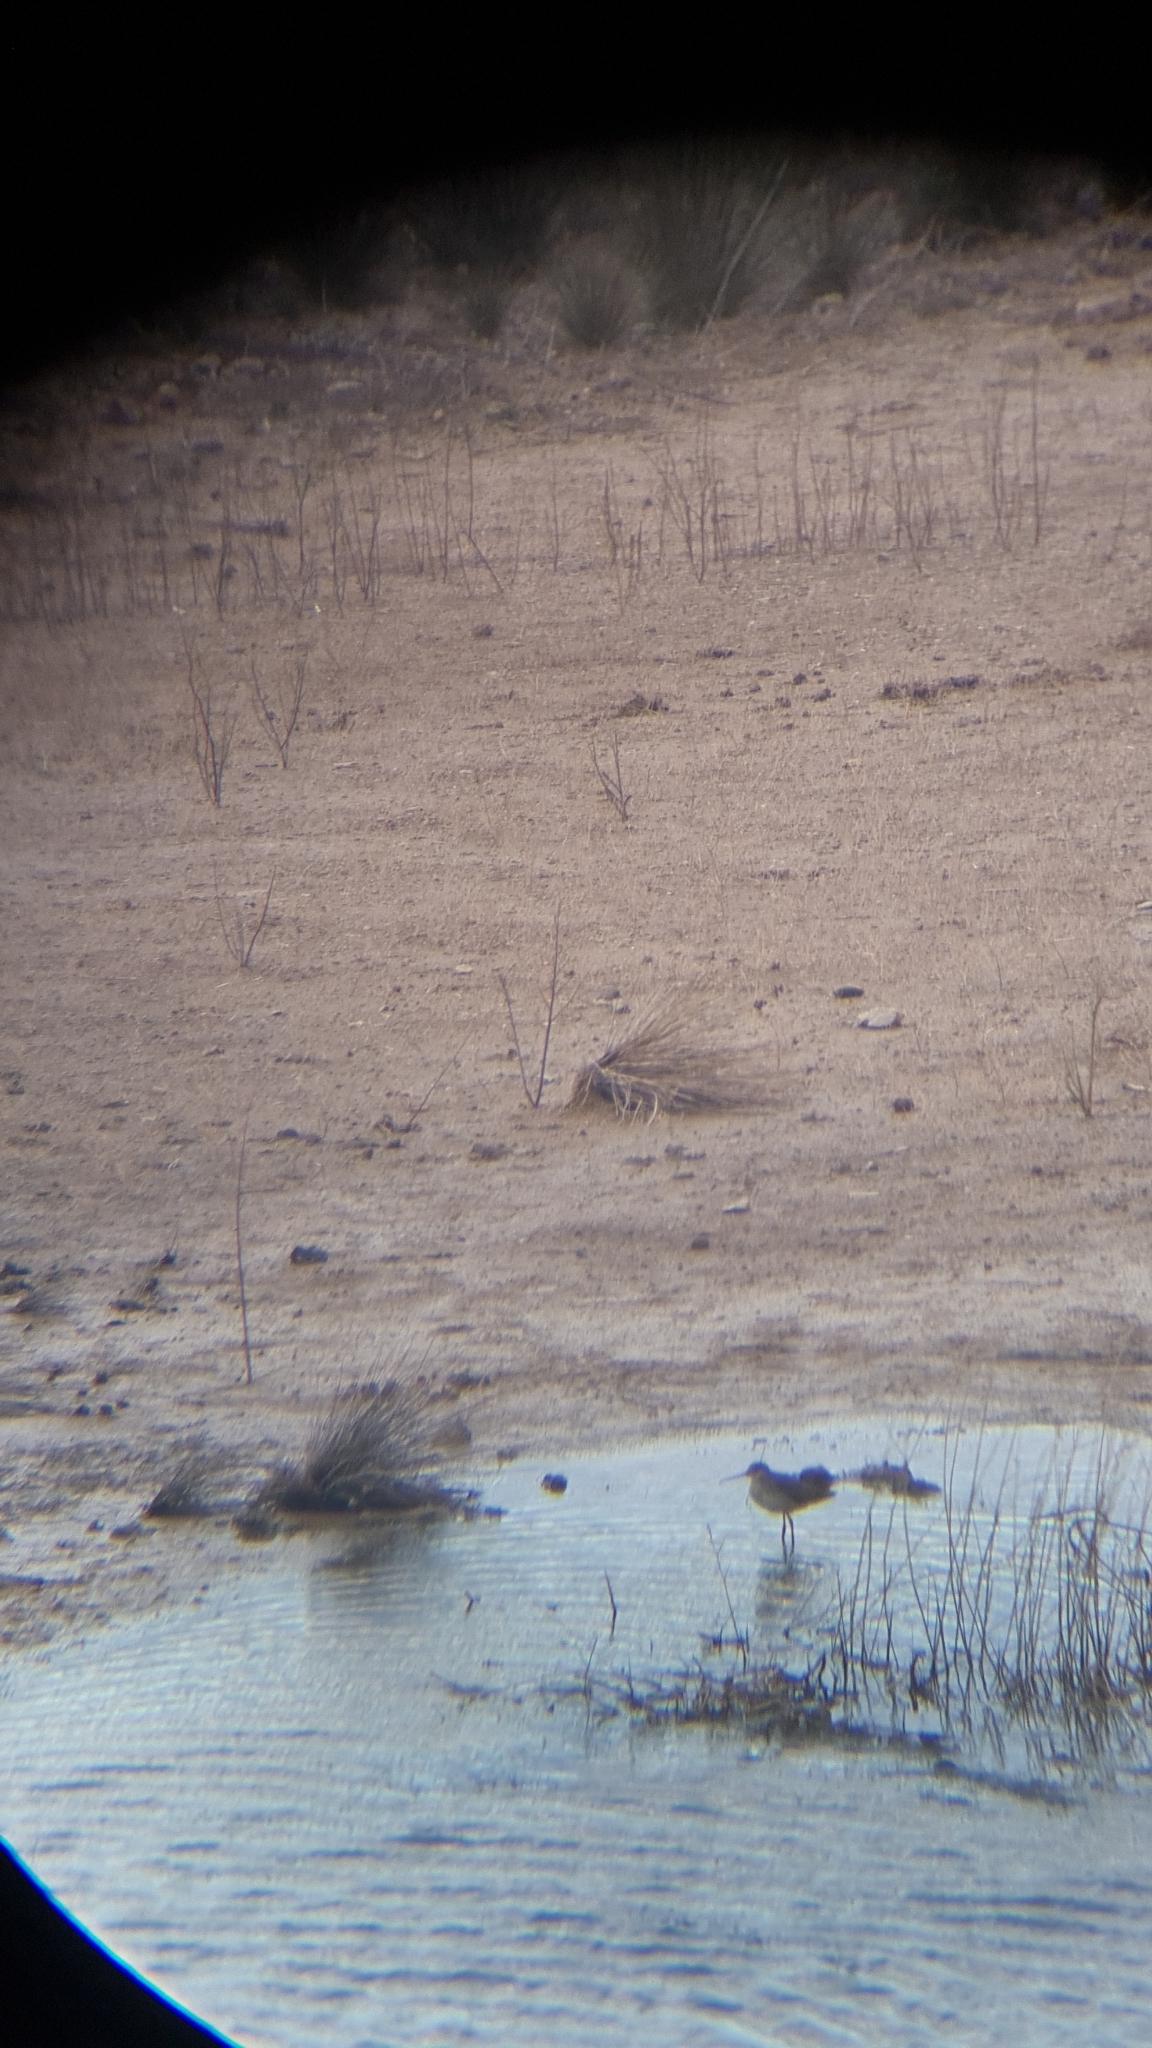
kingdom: Animalia
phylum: Chordata
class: Aves
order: Charadriiformes
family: Scolopacidae
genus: Tringa
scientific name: Tringa erythropus
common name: Spotted redshank
